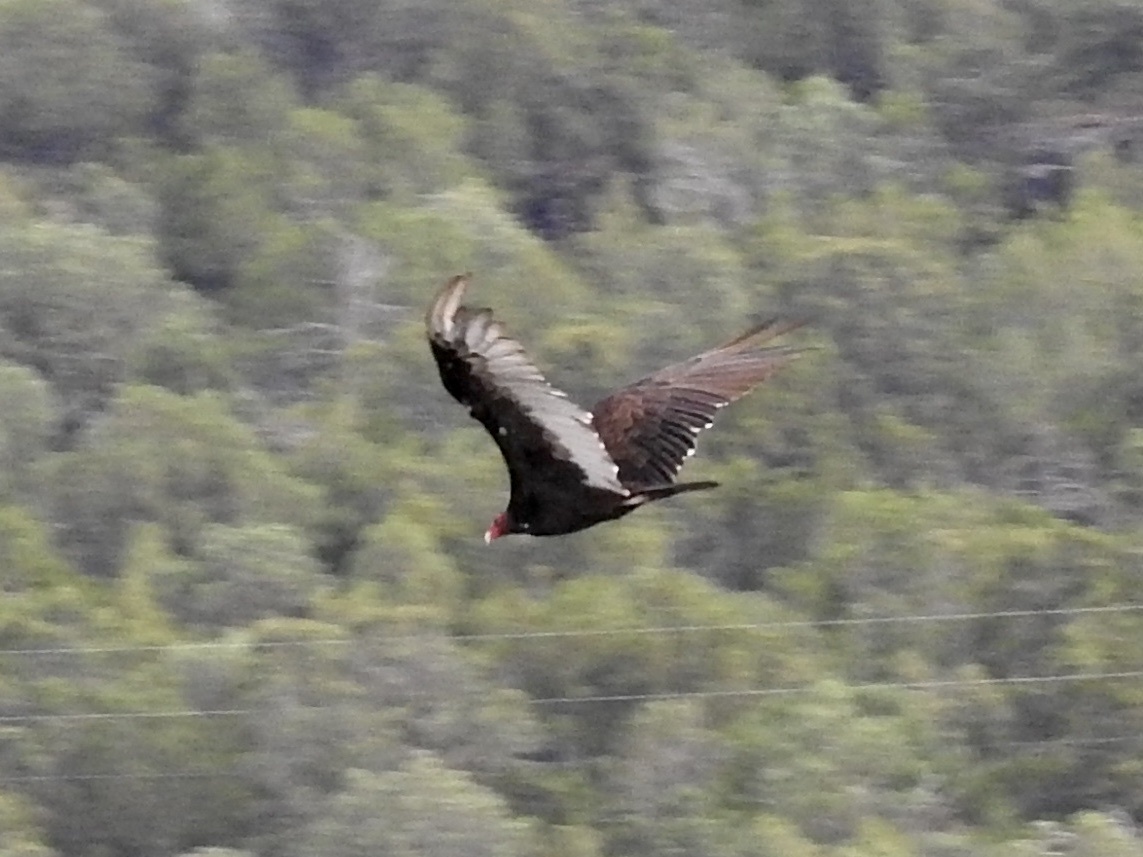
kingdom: Animalia
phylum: Chordata
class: Aves
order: Accipitriformes
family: Cathartidae
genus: Cathartes
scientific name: Cathartes aura
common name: Turkey vulture
